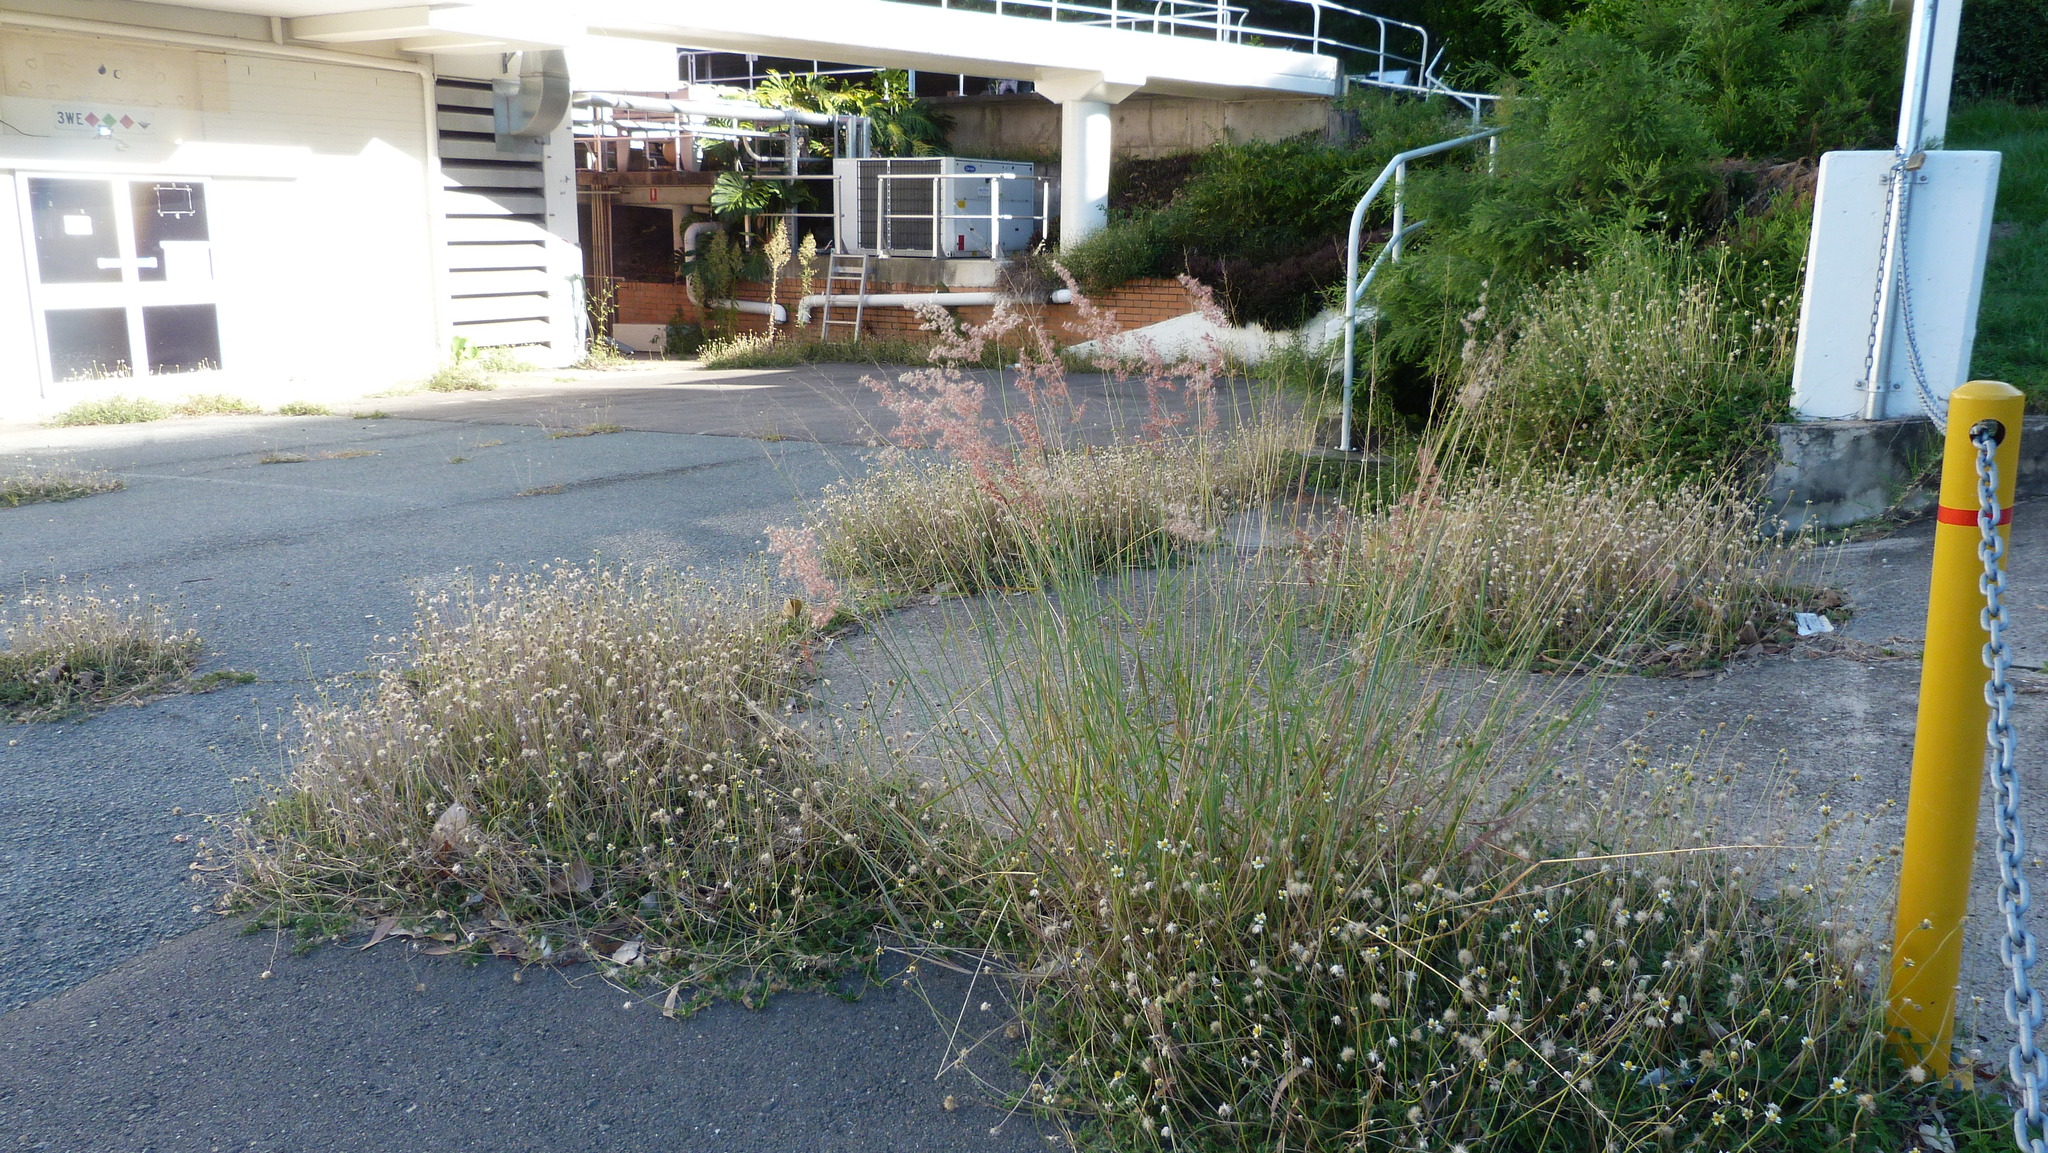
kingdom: Plantae
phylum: Tracheophyta
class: Magnoliopsida
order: Asterales
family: Asteraceae
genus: Tridax
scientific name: Tridax procumbens
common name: Coatbuttons
